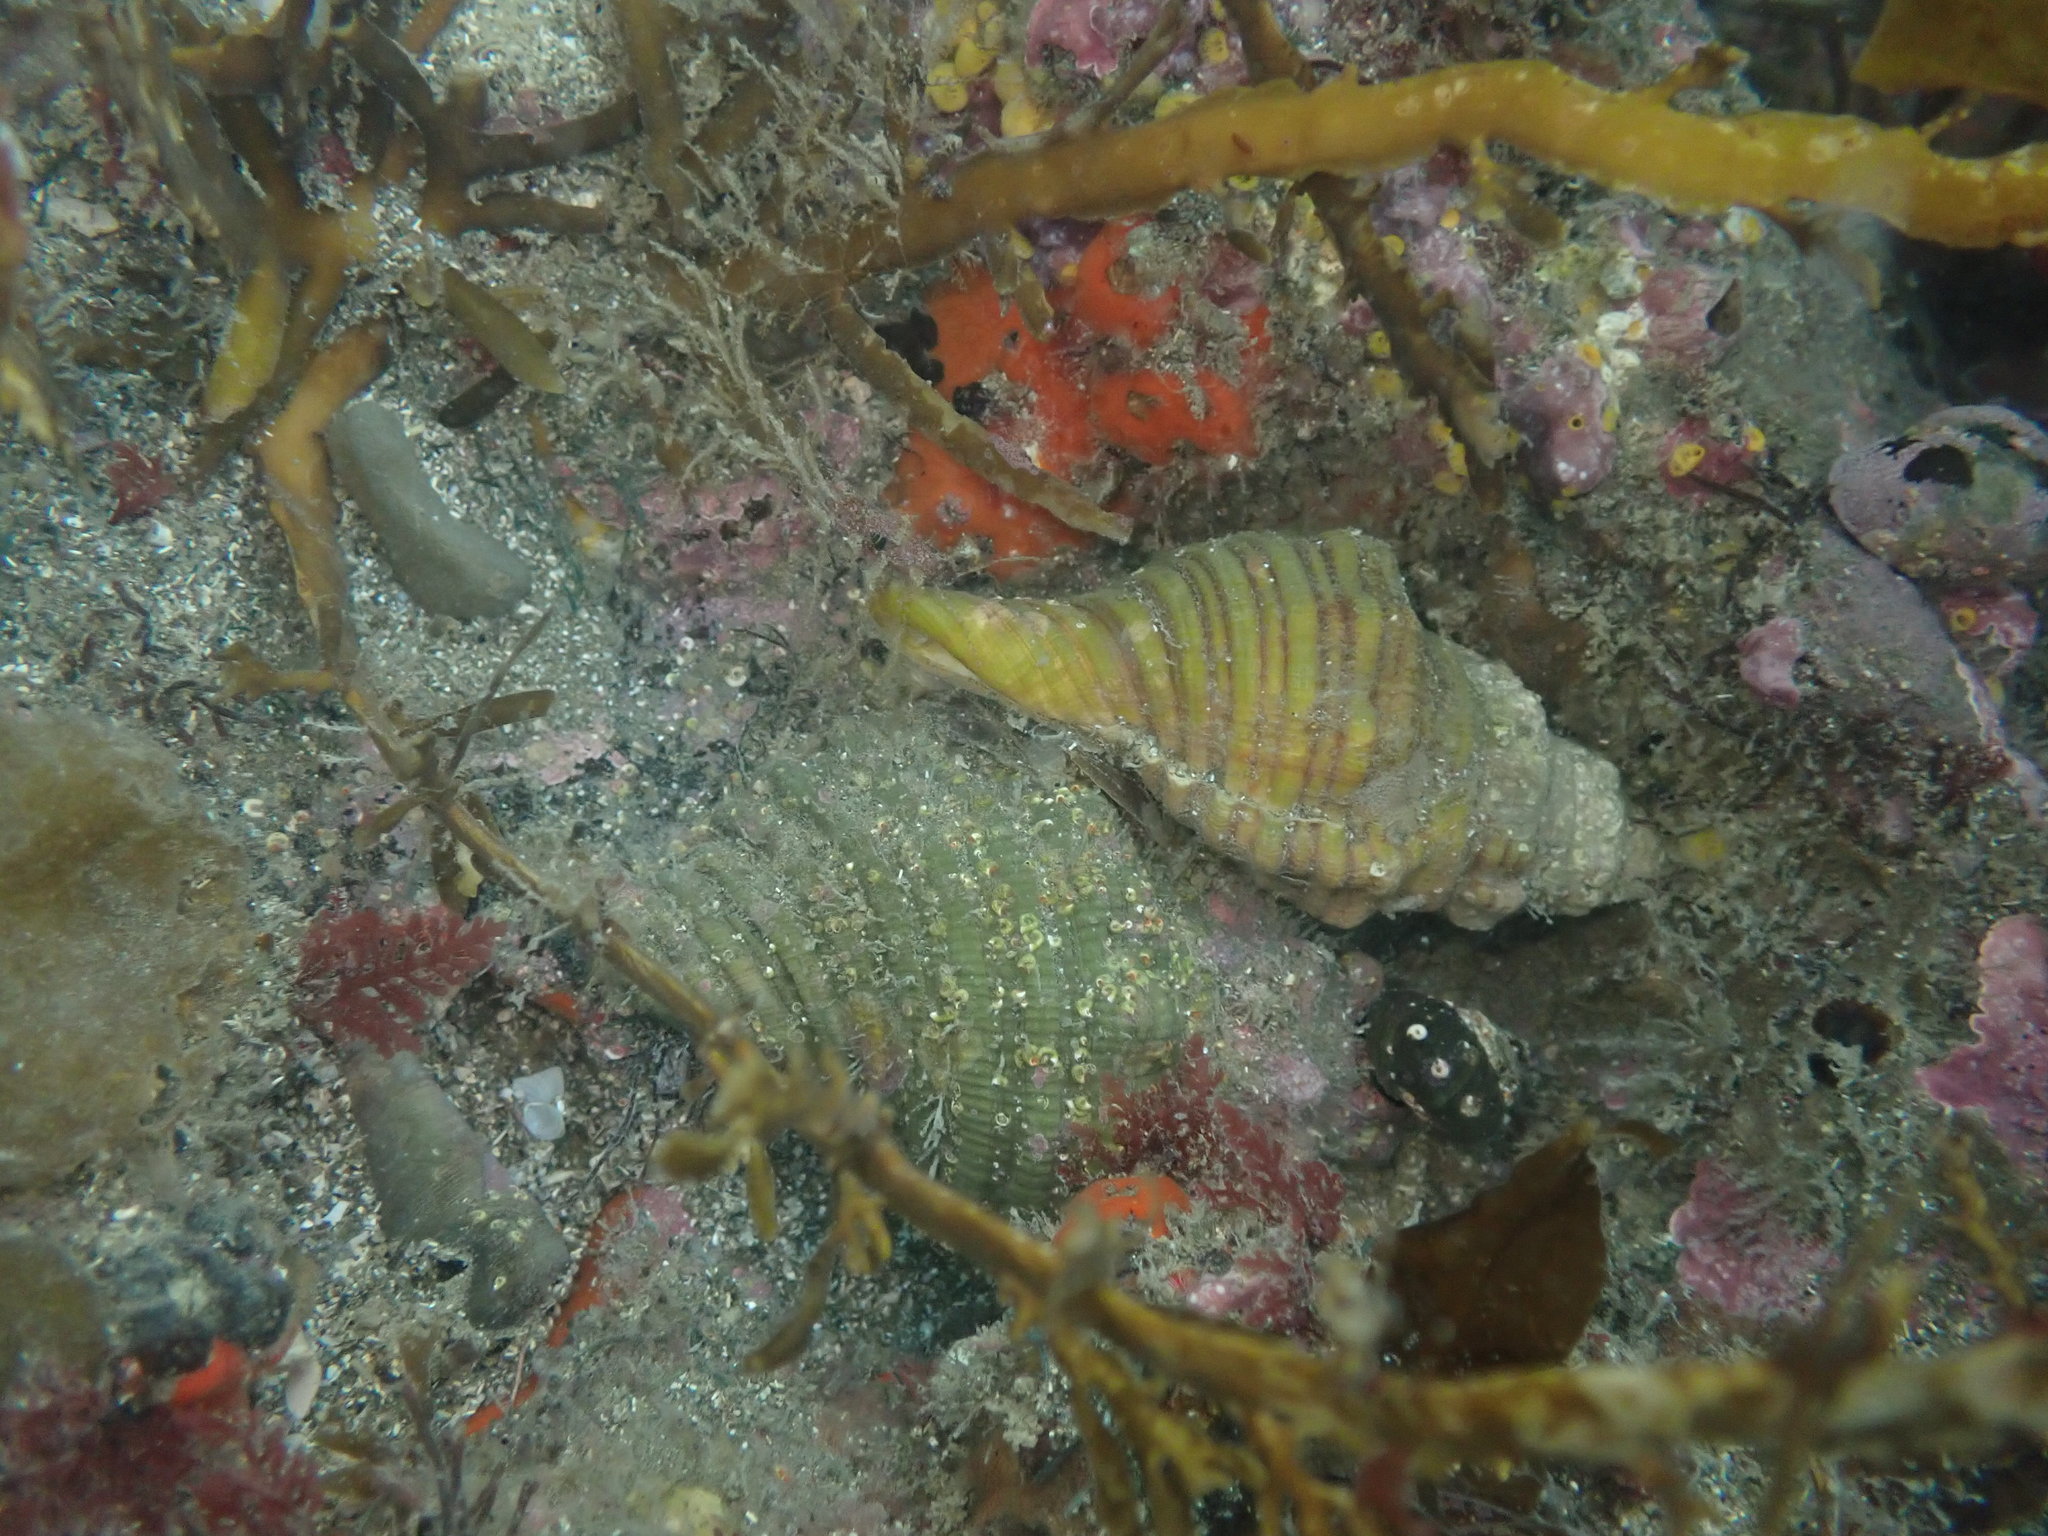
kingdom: Animalia
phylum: Mollusca
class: Gastropoda
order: Littorinimorpha
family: Cymatiidae
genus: Cabestana
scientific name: Cabestana spengleri
